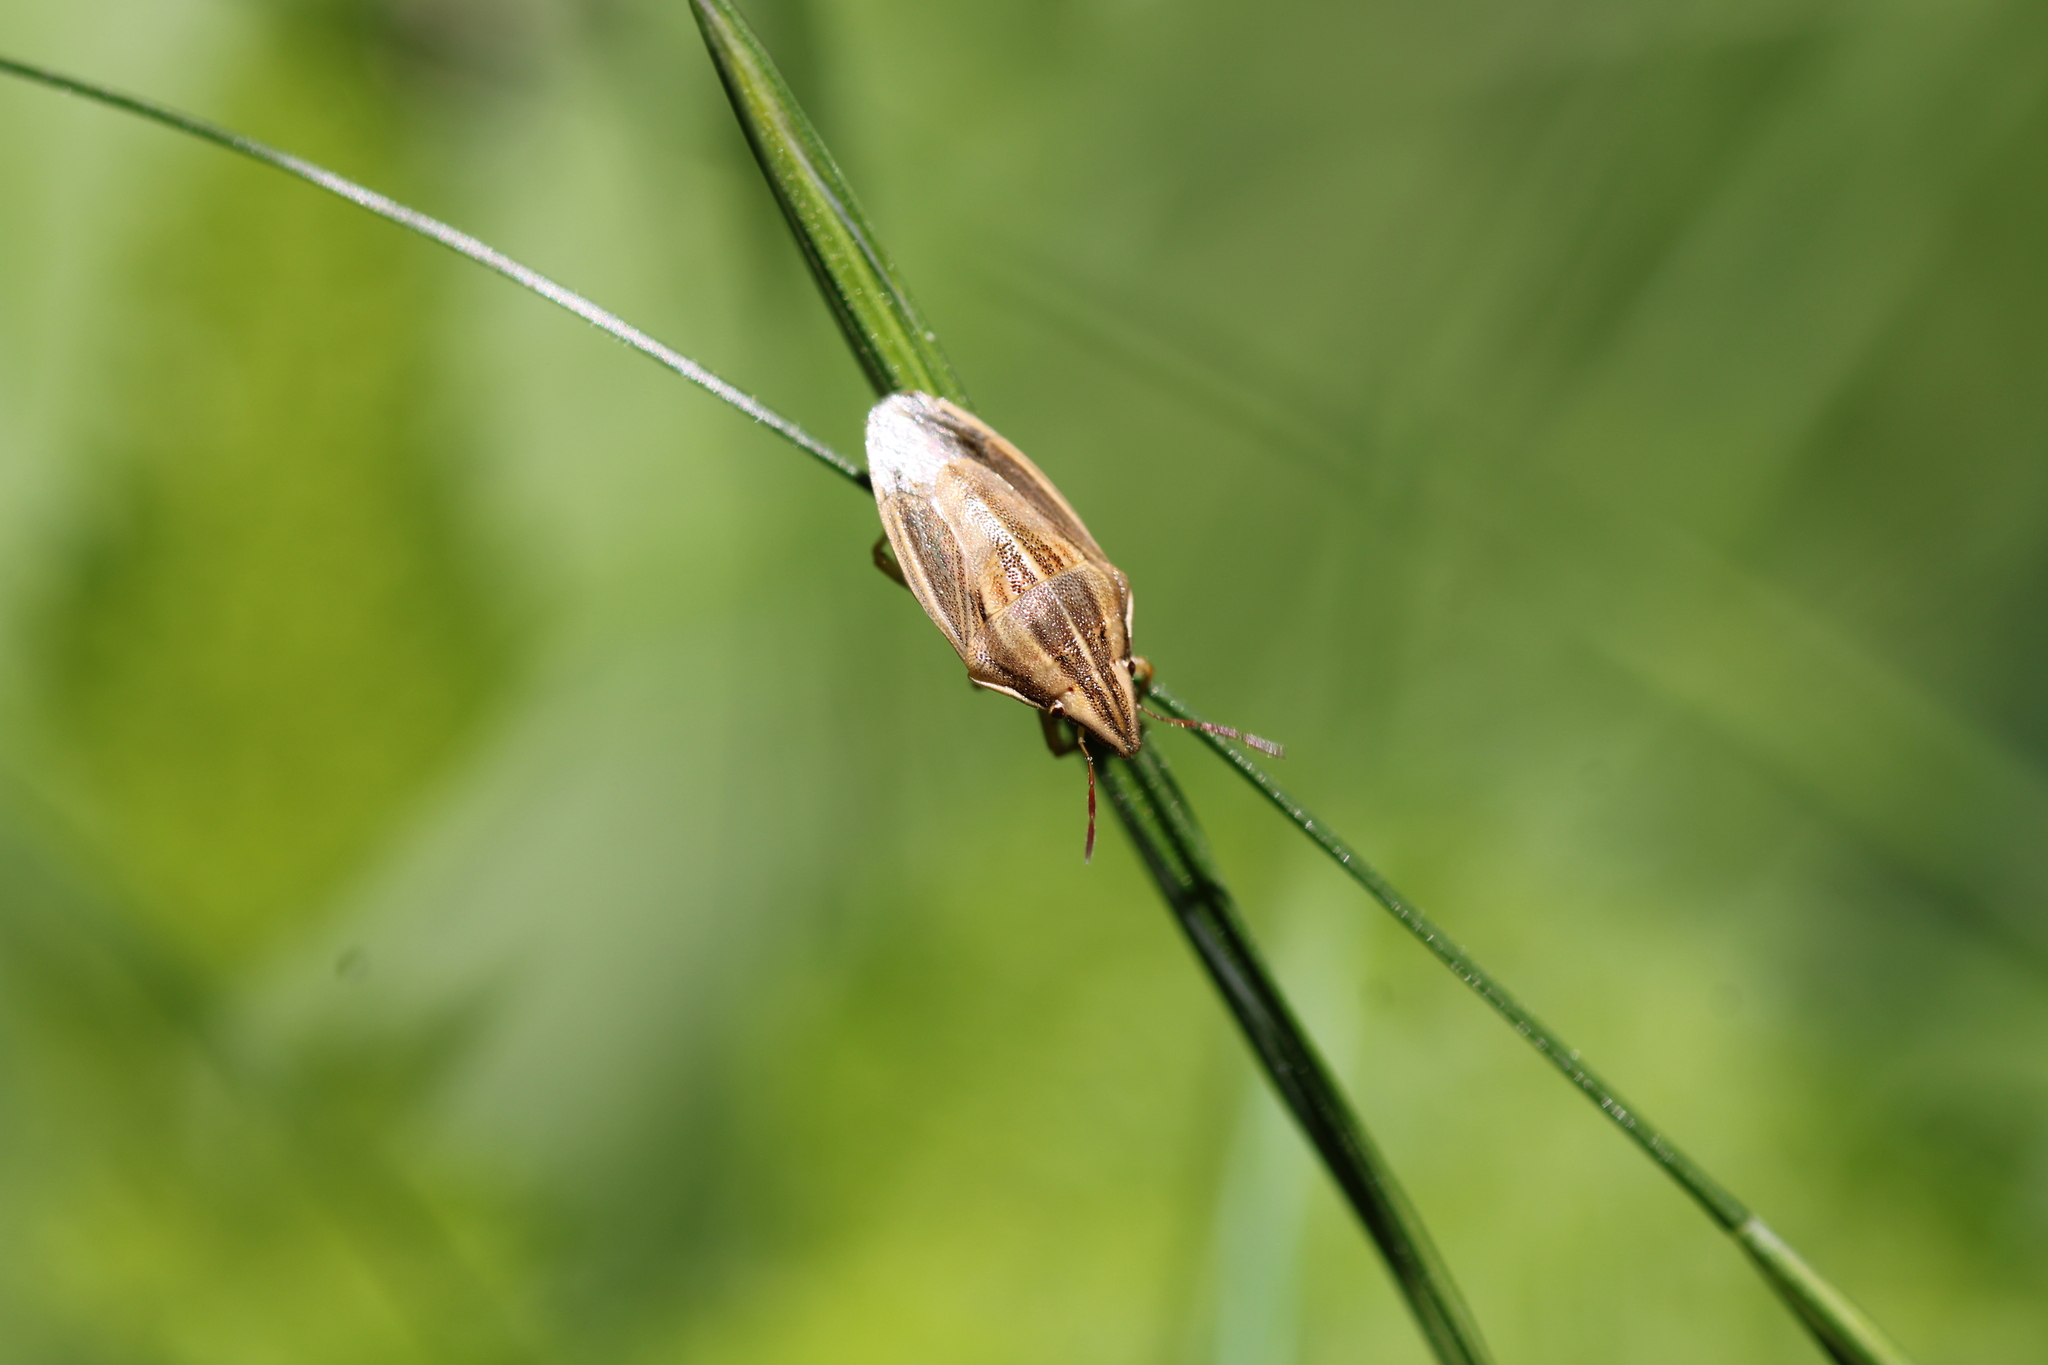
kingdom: Animalia
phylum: Arthropoda
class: Insecta
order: Hemiptera
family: Pentatomidae
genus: Aelia
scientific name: Aelia acuminata
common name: Bishop's mitre
